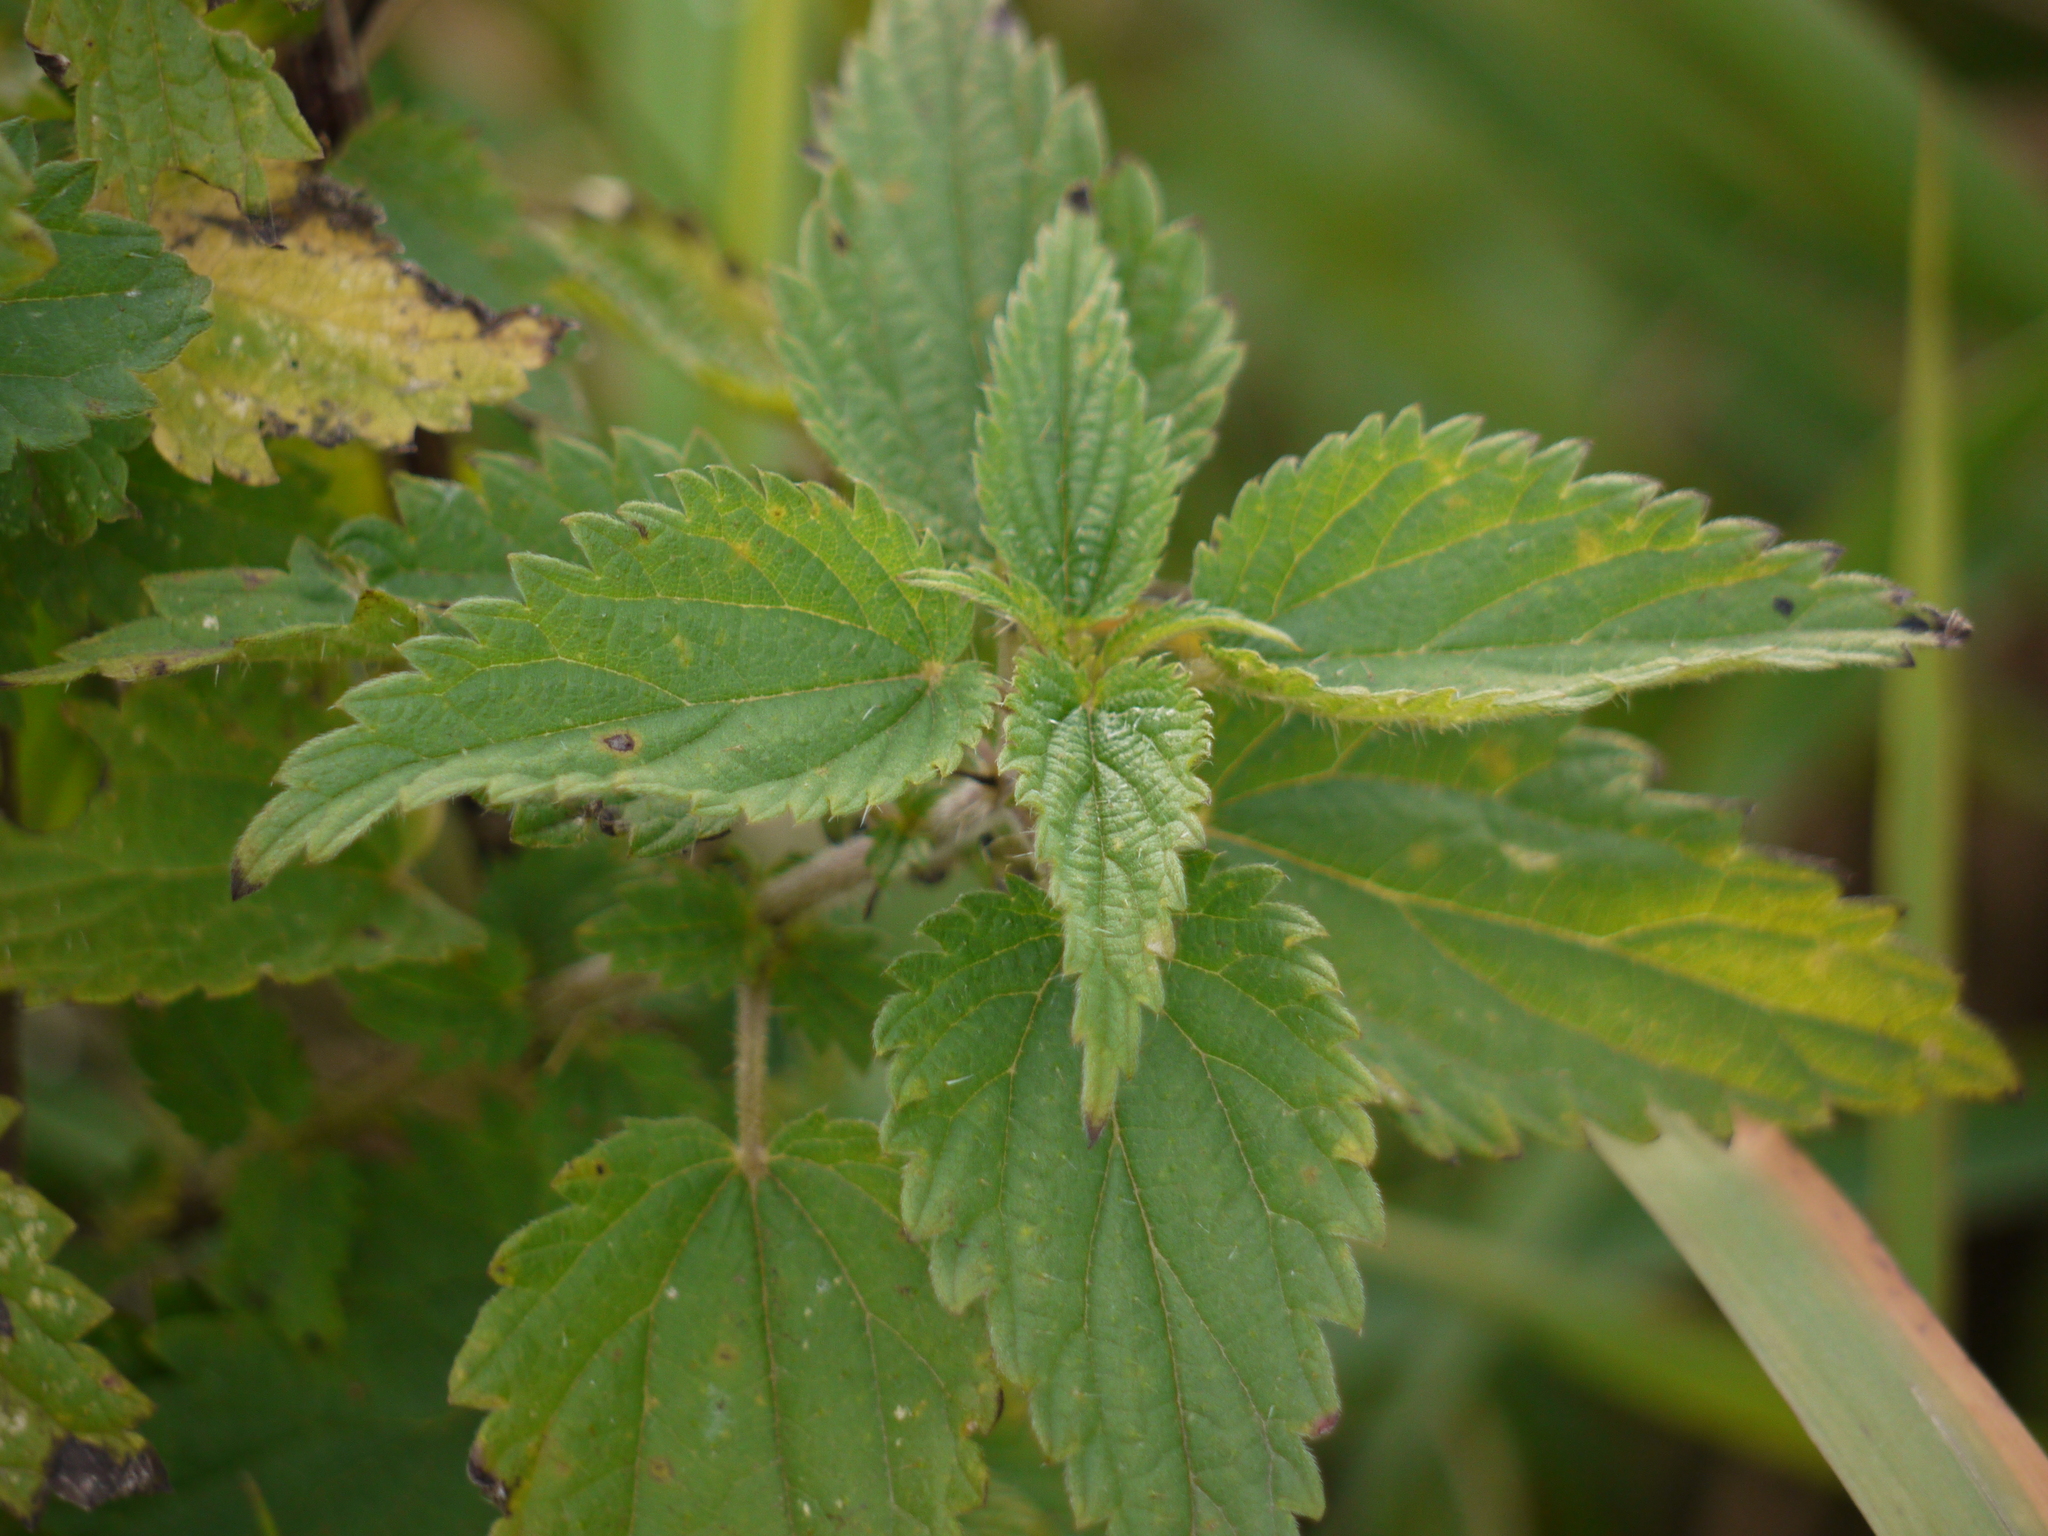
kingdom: Plantae
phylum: Tracheophyta
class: Magnoliopsida
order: Rosales
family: Urticaceae
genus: Urtica
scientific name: Urtica dioica
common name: Common nettle
